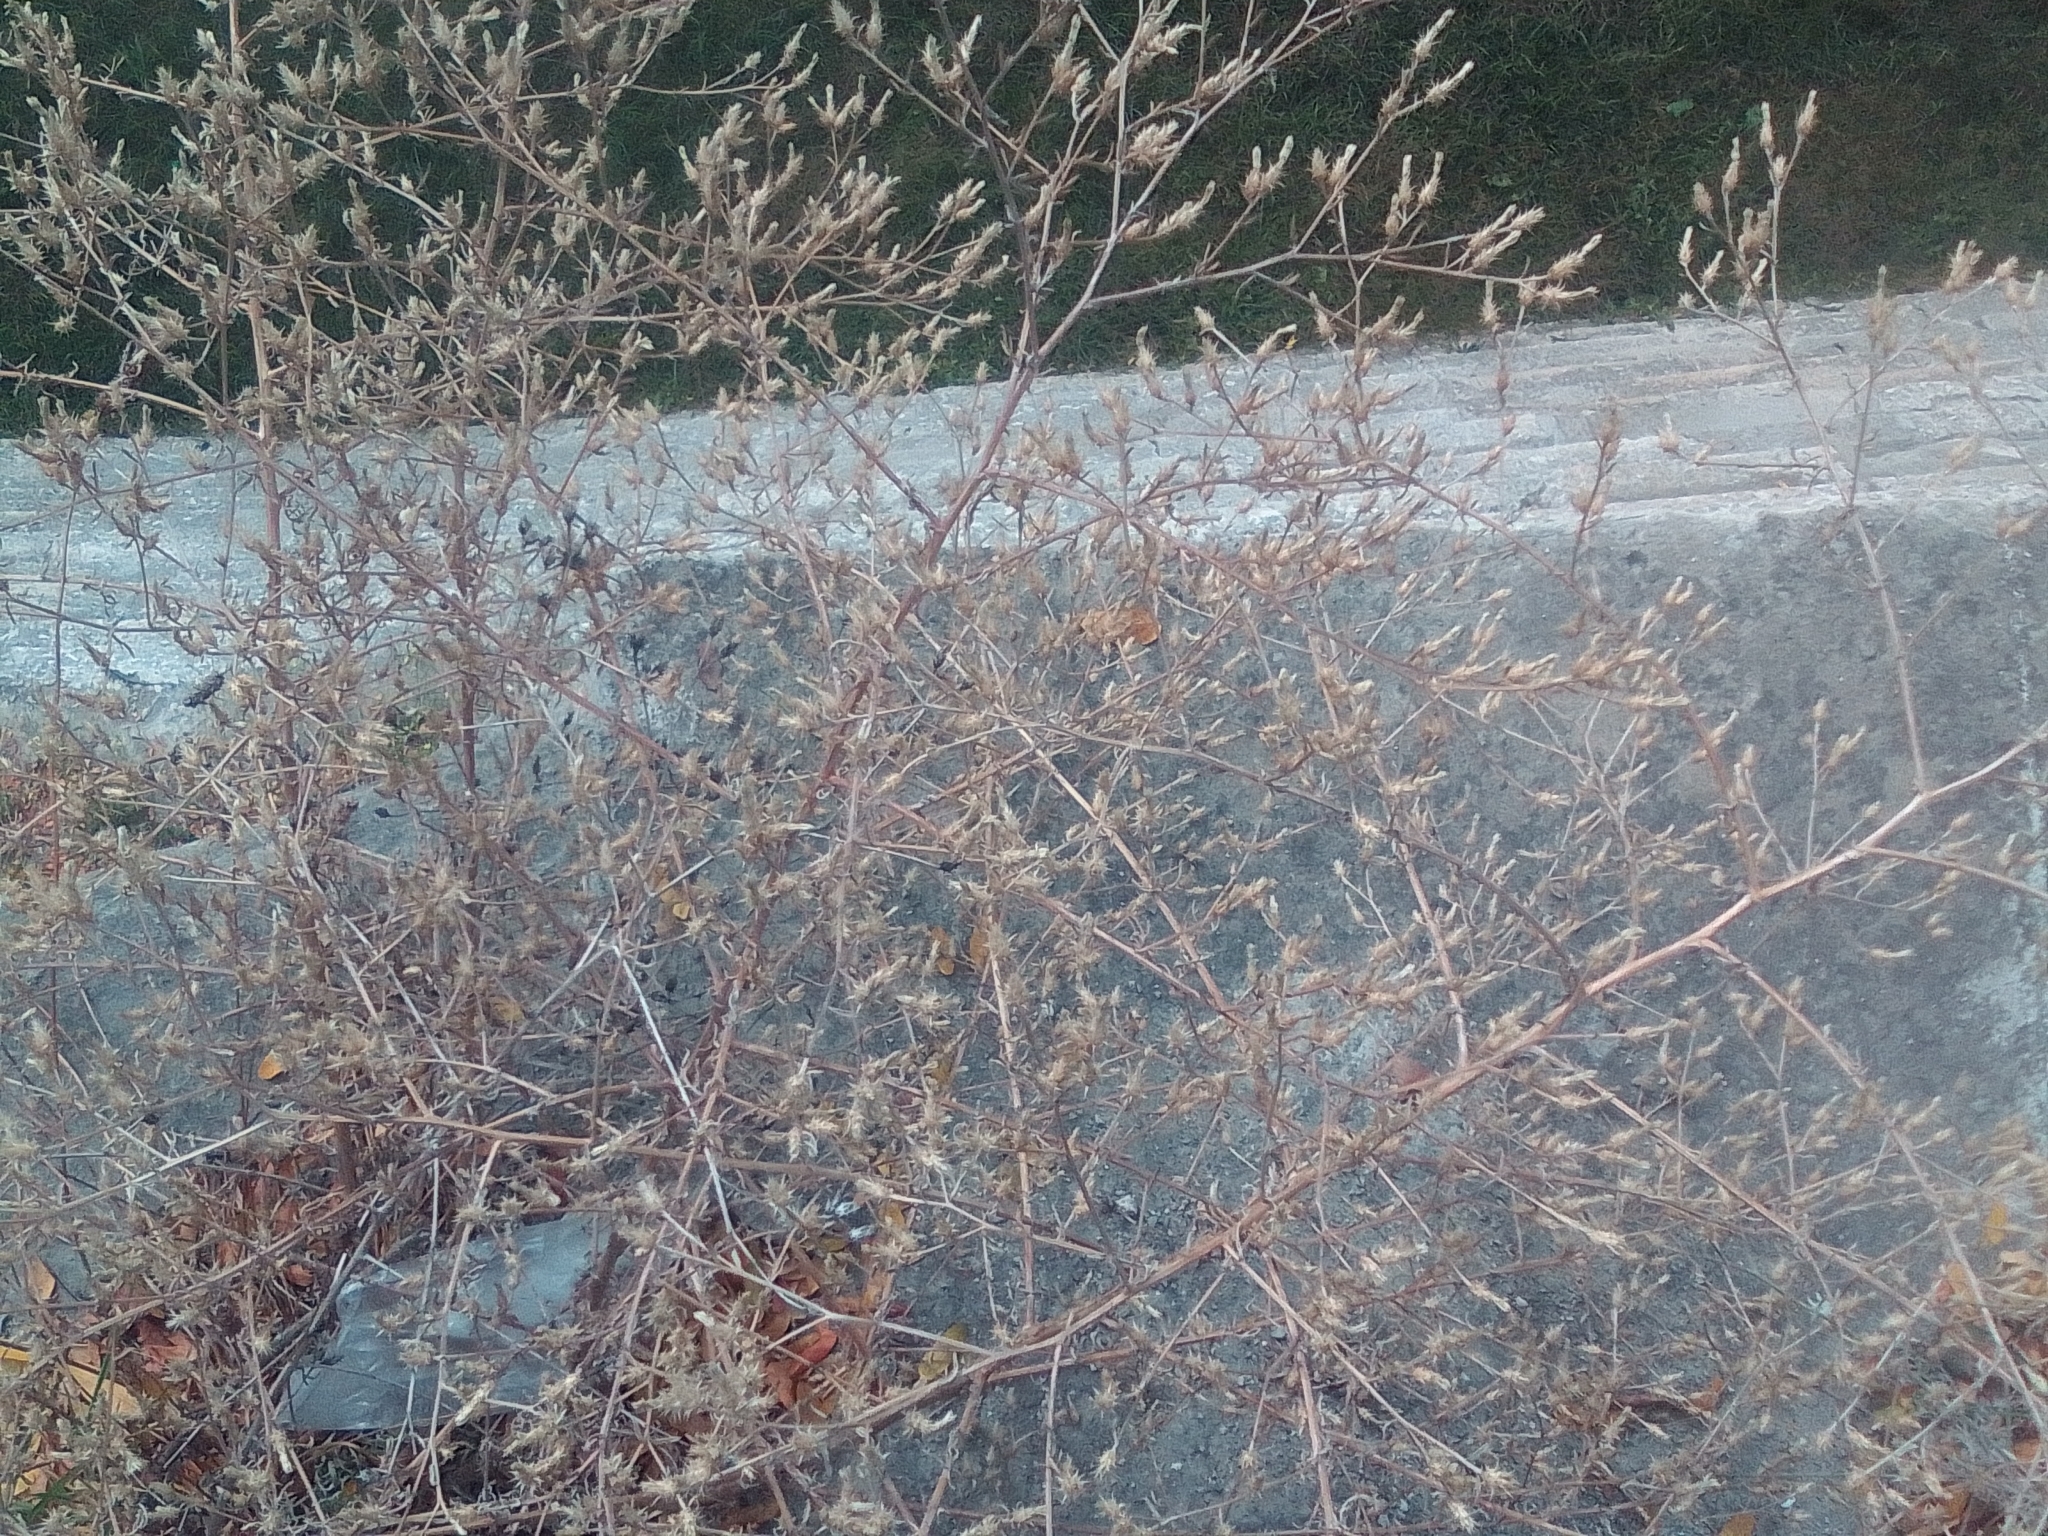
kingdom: Plantae
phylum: Tracheophyta
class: Magnoliopsida
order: Asterales
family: Asteraceae
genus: Centaurea
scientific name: Centaurea diffusa
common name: Diffuse knapweed
